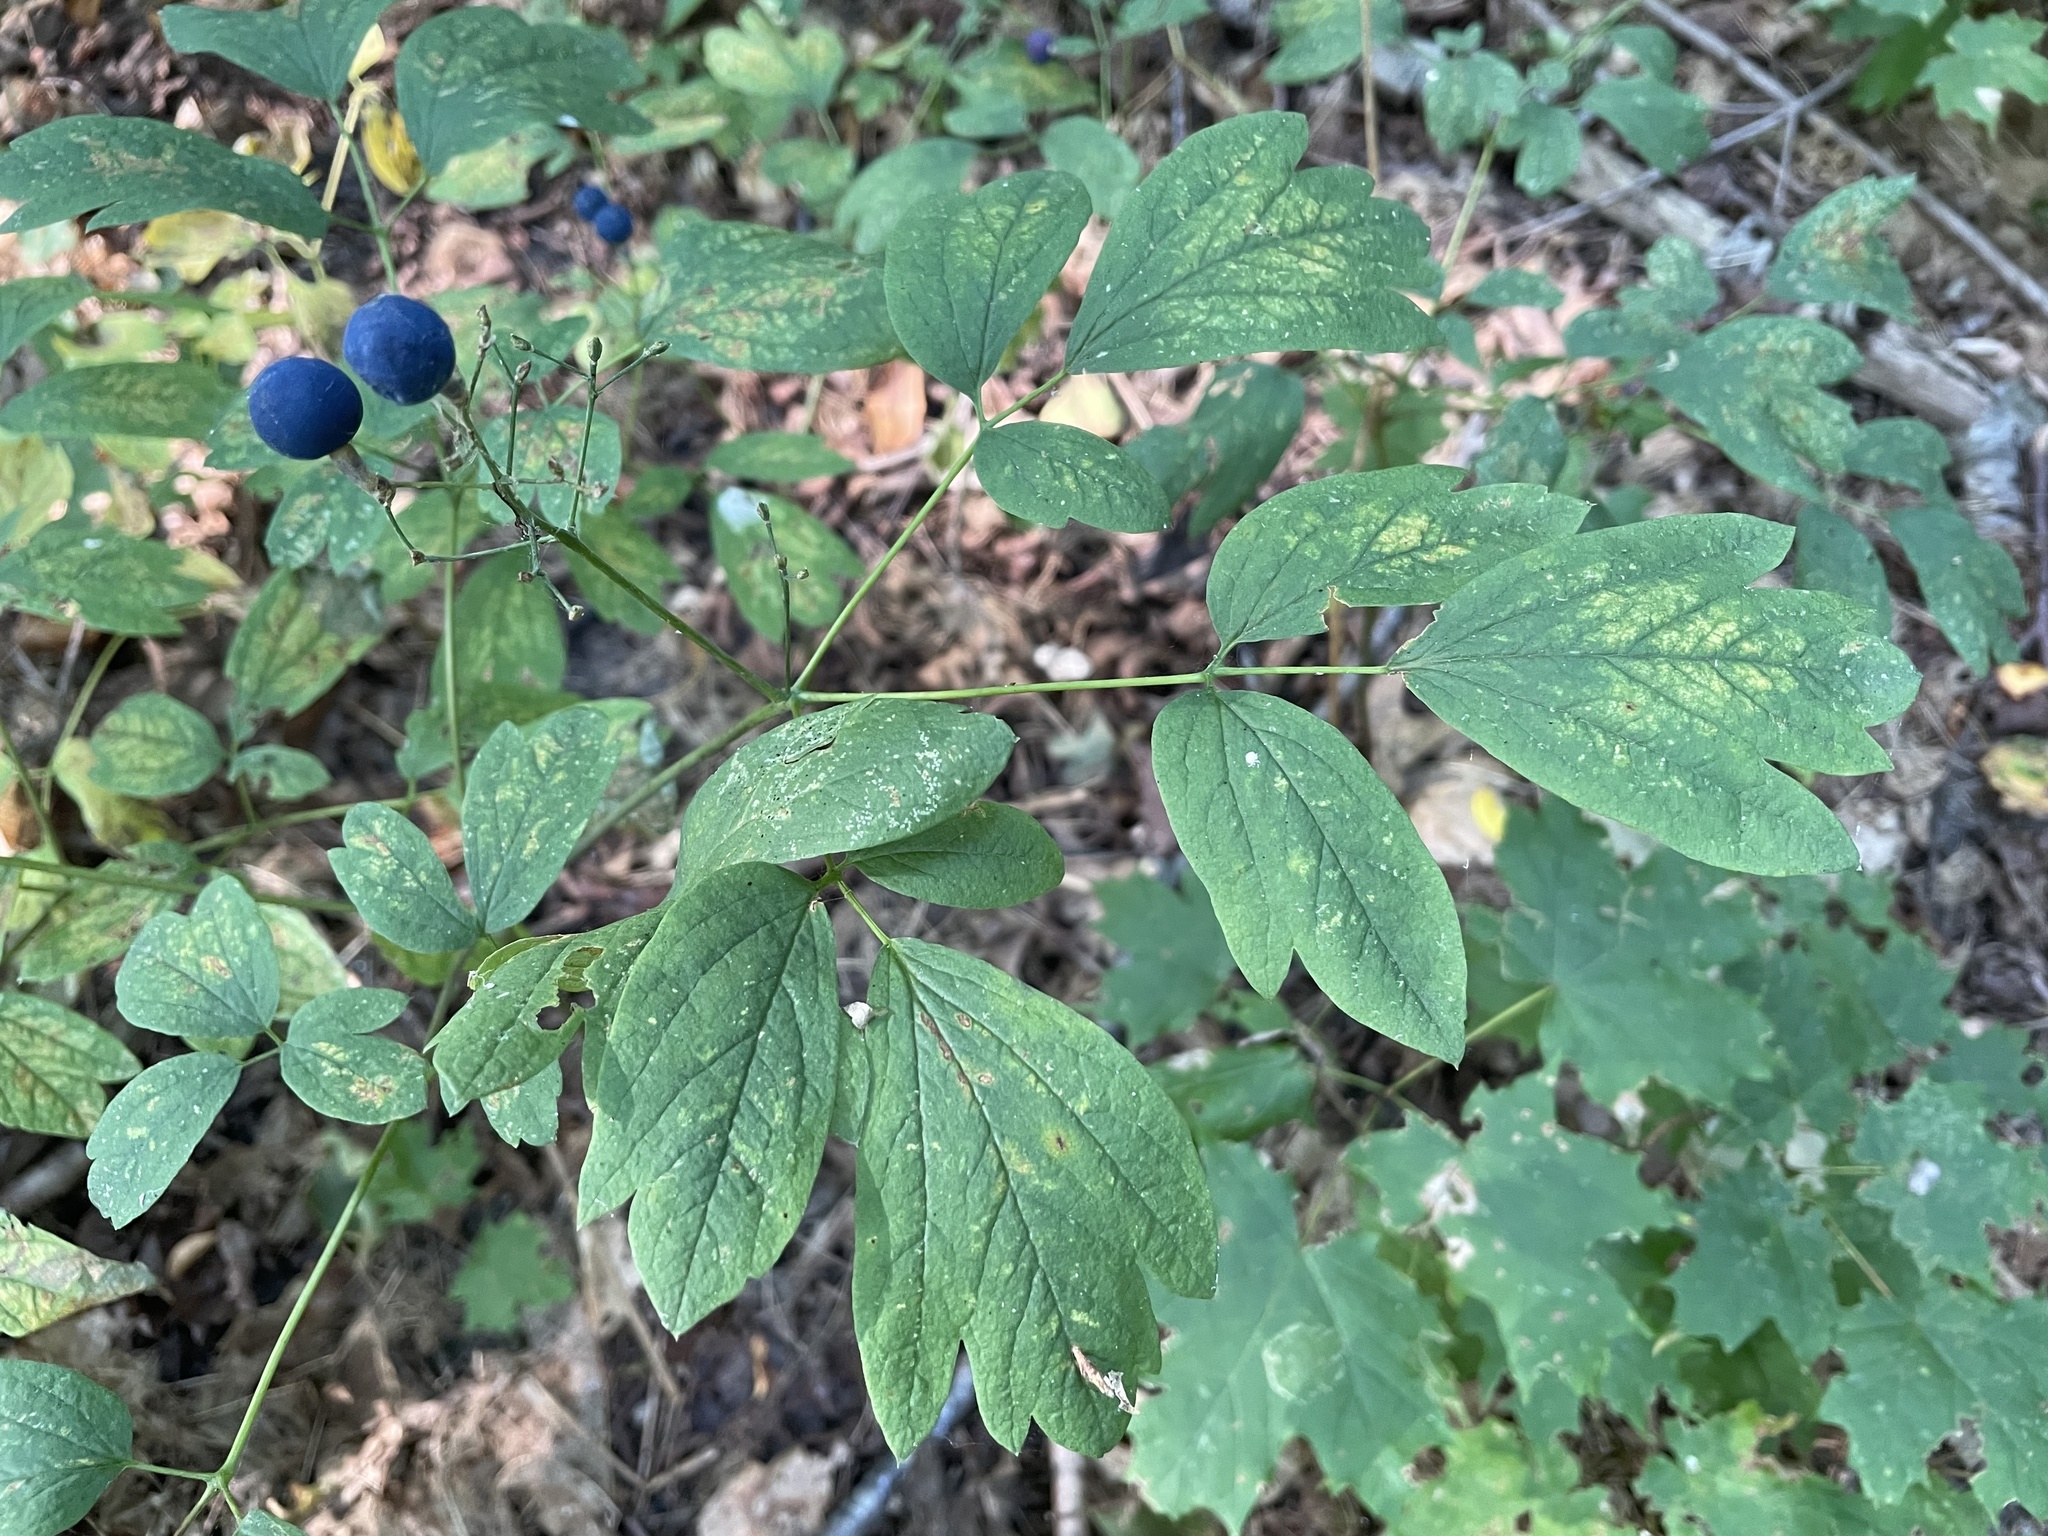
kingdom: Plantae
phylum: Tracheophyta
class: Magnoliopsida
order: Ranunculales
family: Berberidaceae
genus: Caulophyllum
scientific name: Caulophyllum thalictroides
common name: Blue cohosh
